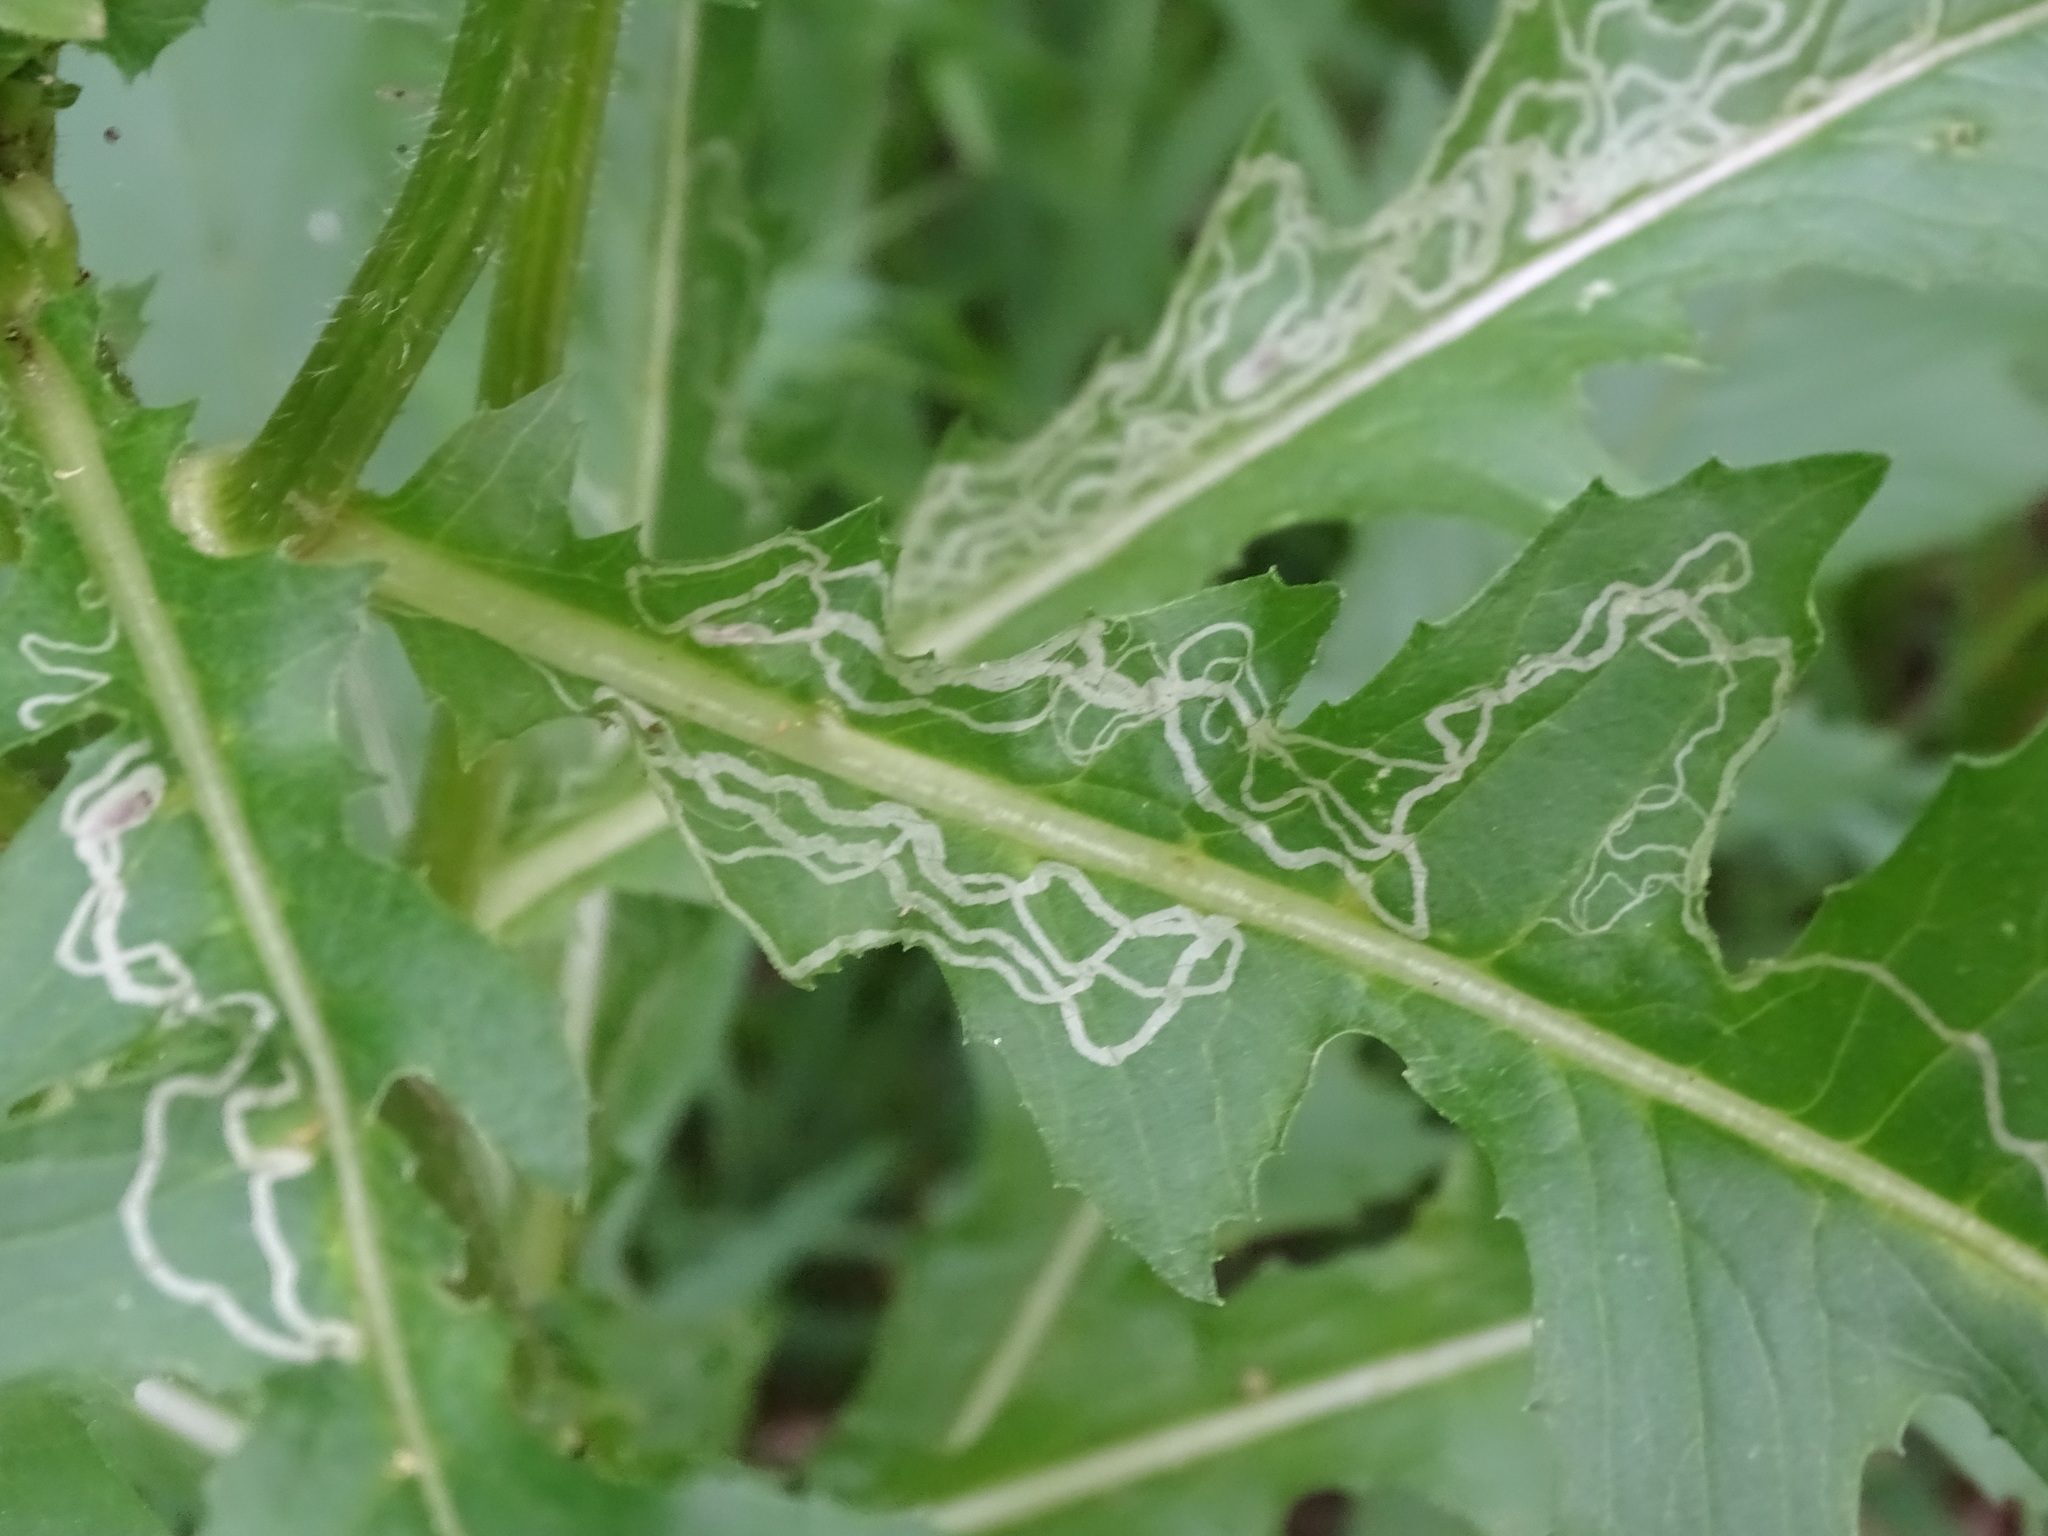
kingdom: Animalia
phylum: Arthropoda
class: Insecta
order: Lepidoptera
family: Gracillariidae
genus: Phyllocnistis
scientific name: Phyllocnistis insignis
